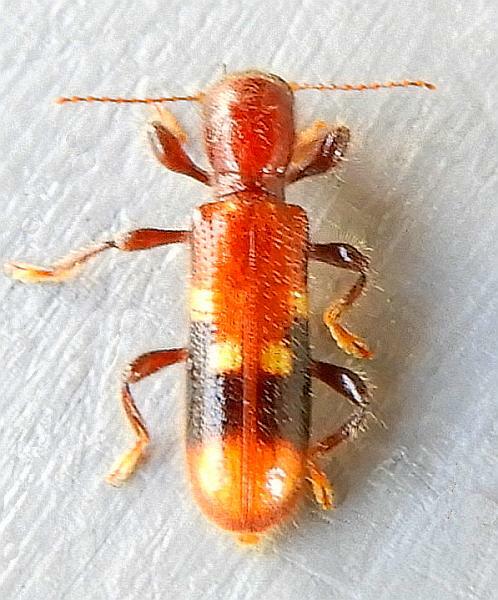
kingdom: Animalia
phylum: Arthropoda
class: Insecta
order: Coleoptera
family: Cleridae
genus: Priocera
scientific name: Priocera castanea
